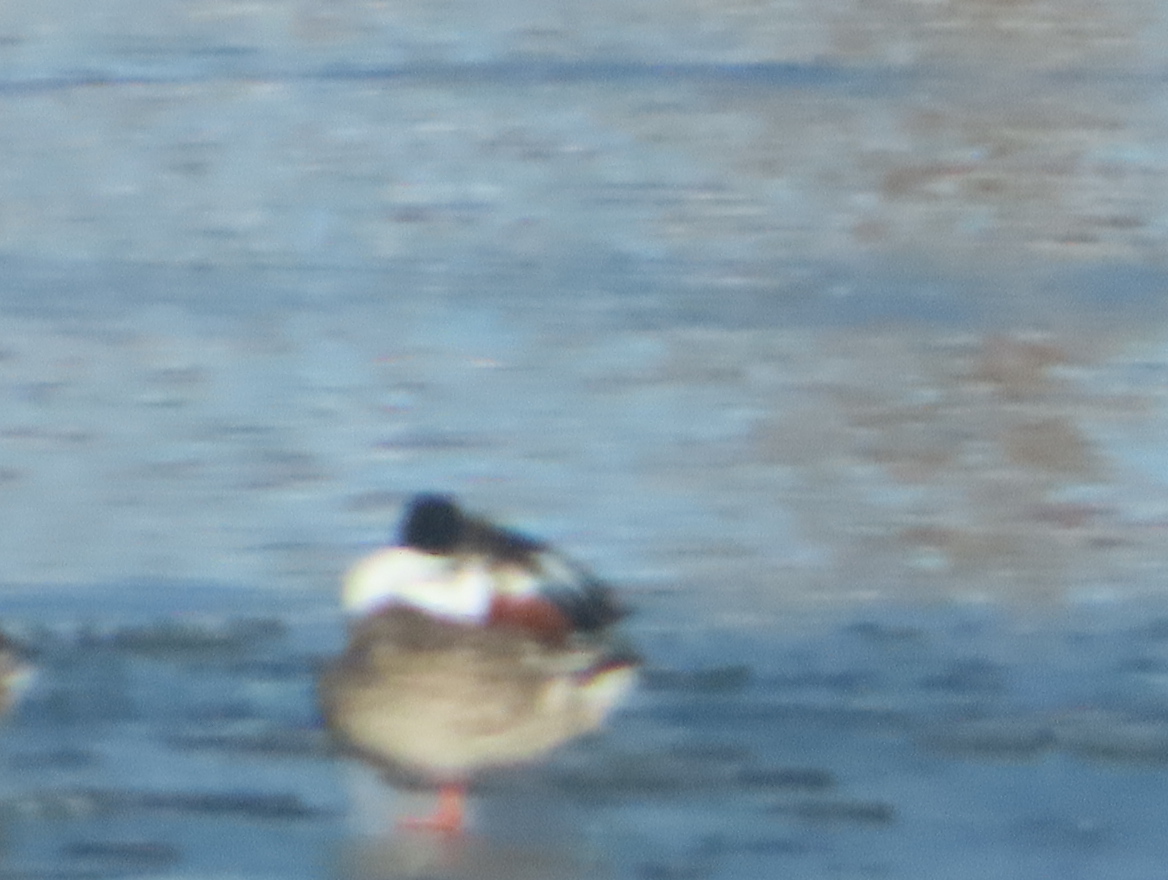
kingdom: Animalia
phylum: Chordata
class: Aves
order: Anseriformes
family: Anatidae
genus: Spatula
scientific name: Spatula clypeata
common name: Northern shoveler
